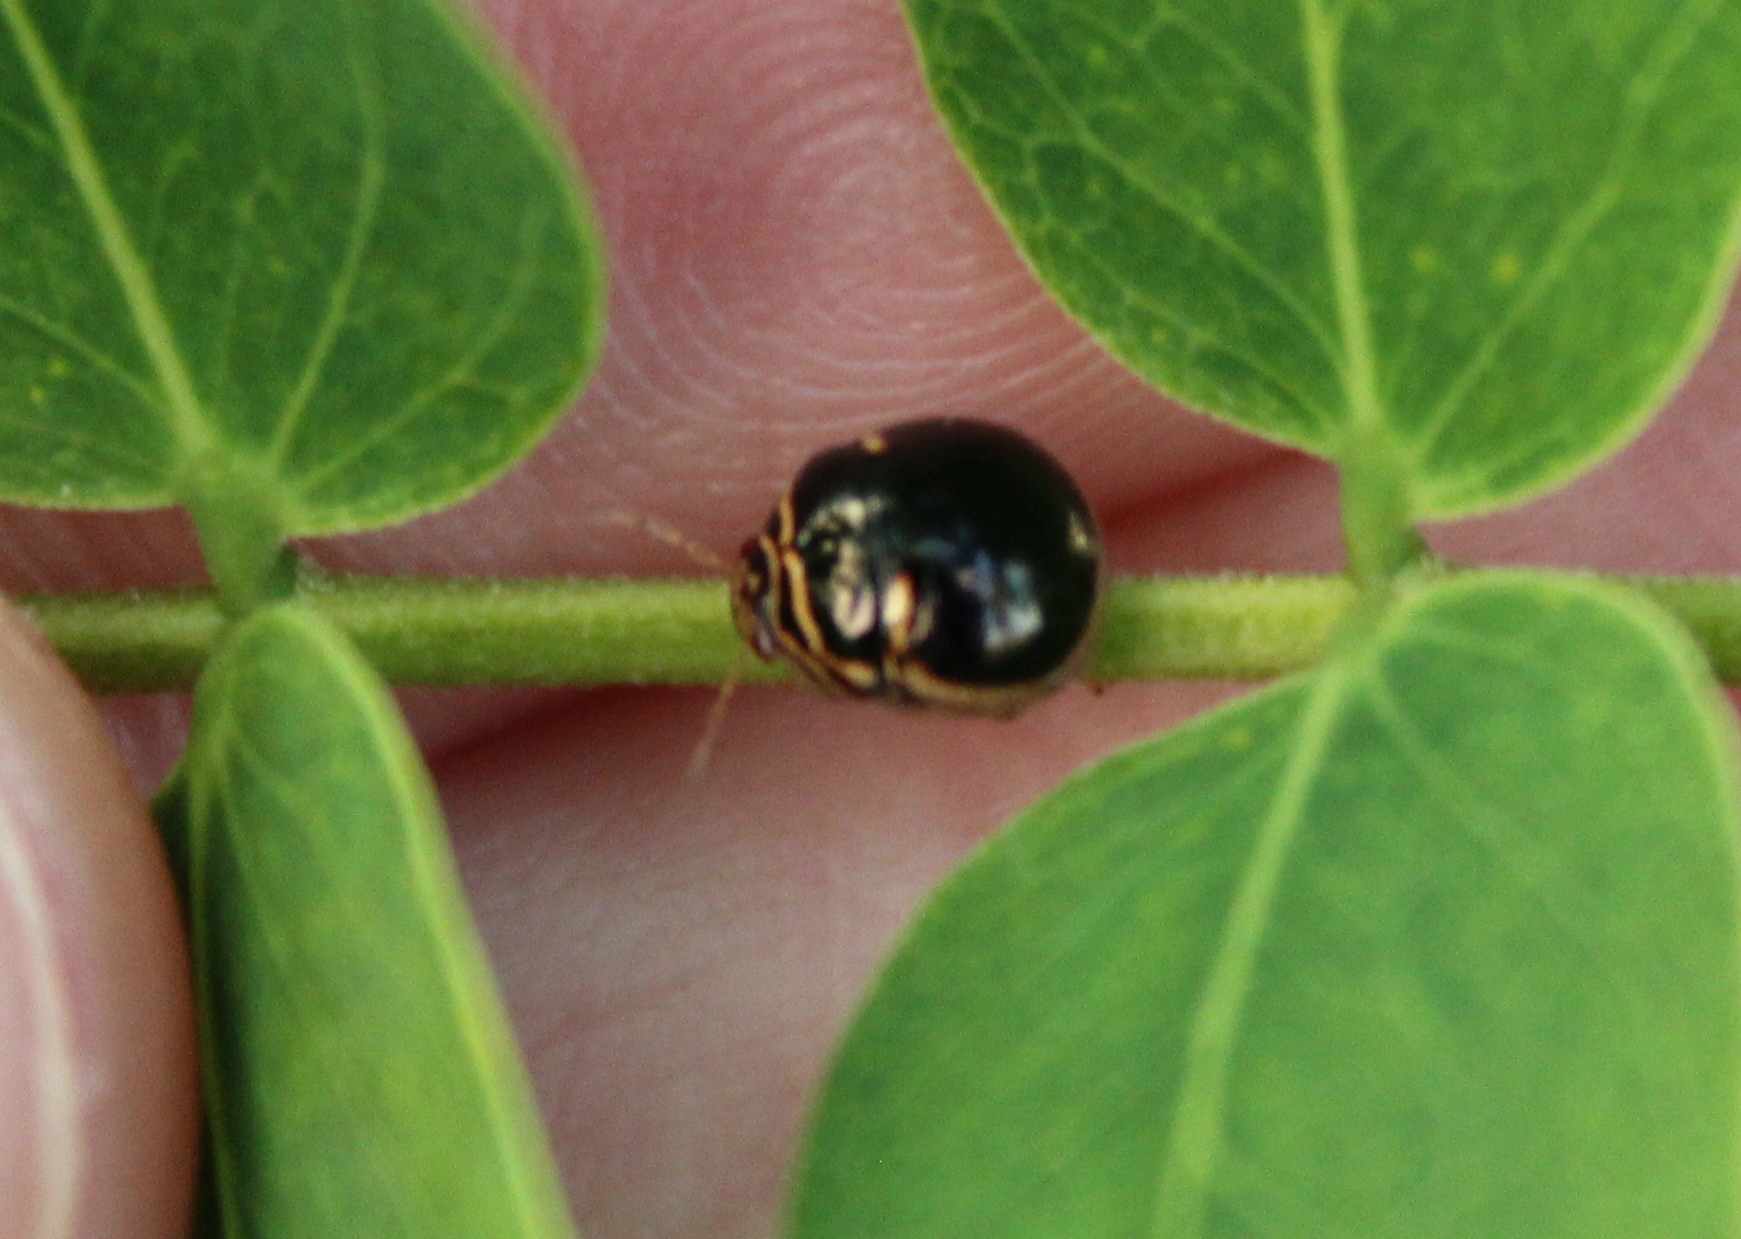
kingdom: Animalia
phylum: Arthropoda
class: Insecta
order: Hemiptera
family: Plataspidae
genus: Coptosoma
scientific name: Coptosoma
